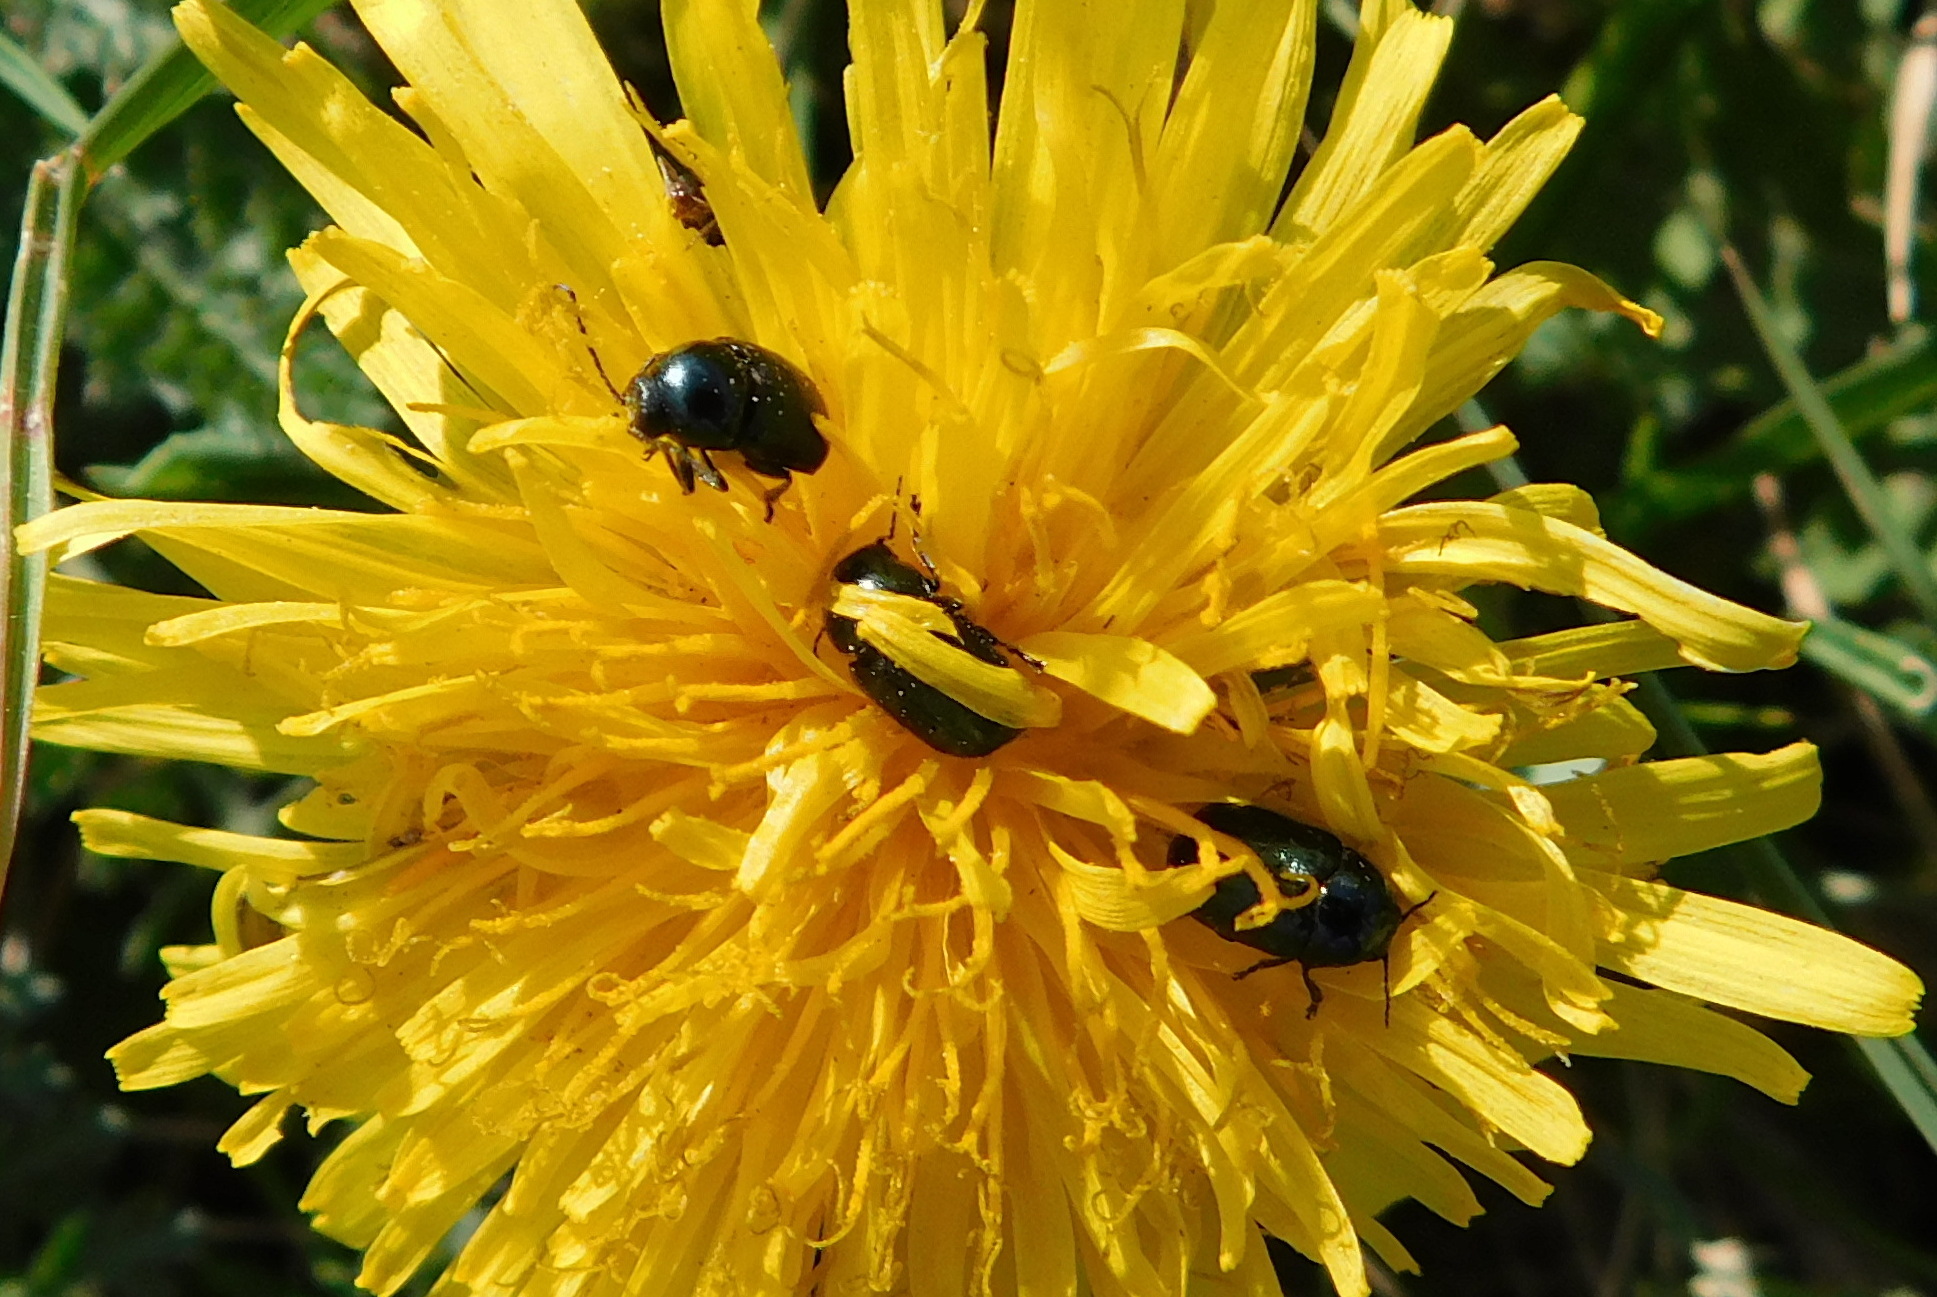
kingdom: Animalia
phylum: Arthropoda
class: Insecta
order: Coleoptera
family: Chrysomelidae
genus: Cryptocephalus
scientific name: Cryptocephalus violaceus
